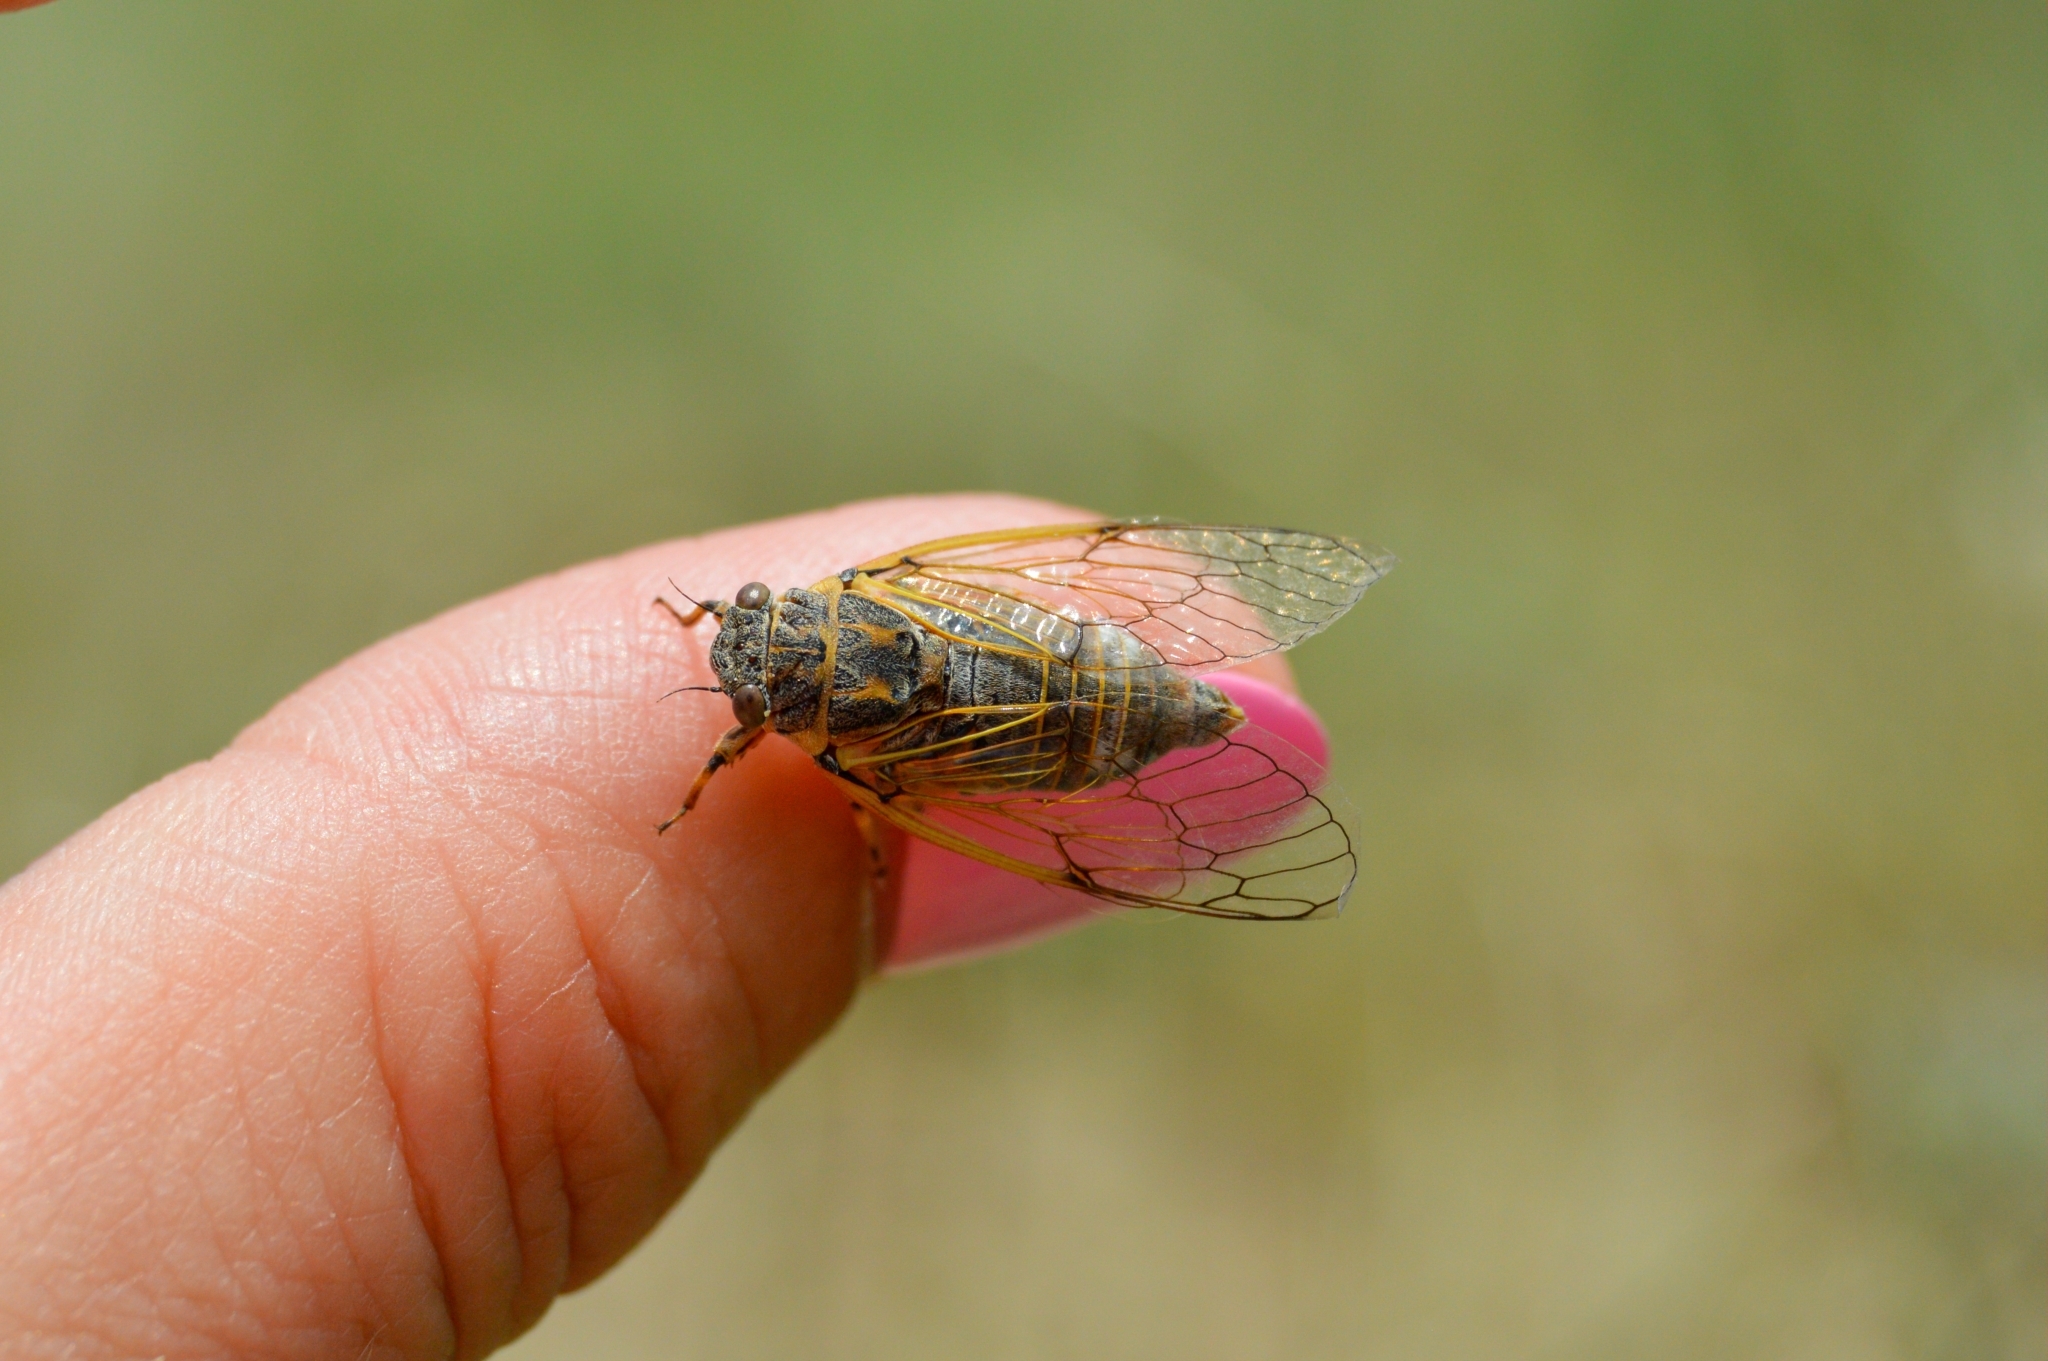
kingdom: Animalia
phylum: Arthropoda
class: Insecta
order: Hemiptera
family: Cicadidae
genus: Cicadatra
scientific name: Cicadatra hyalina
